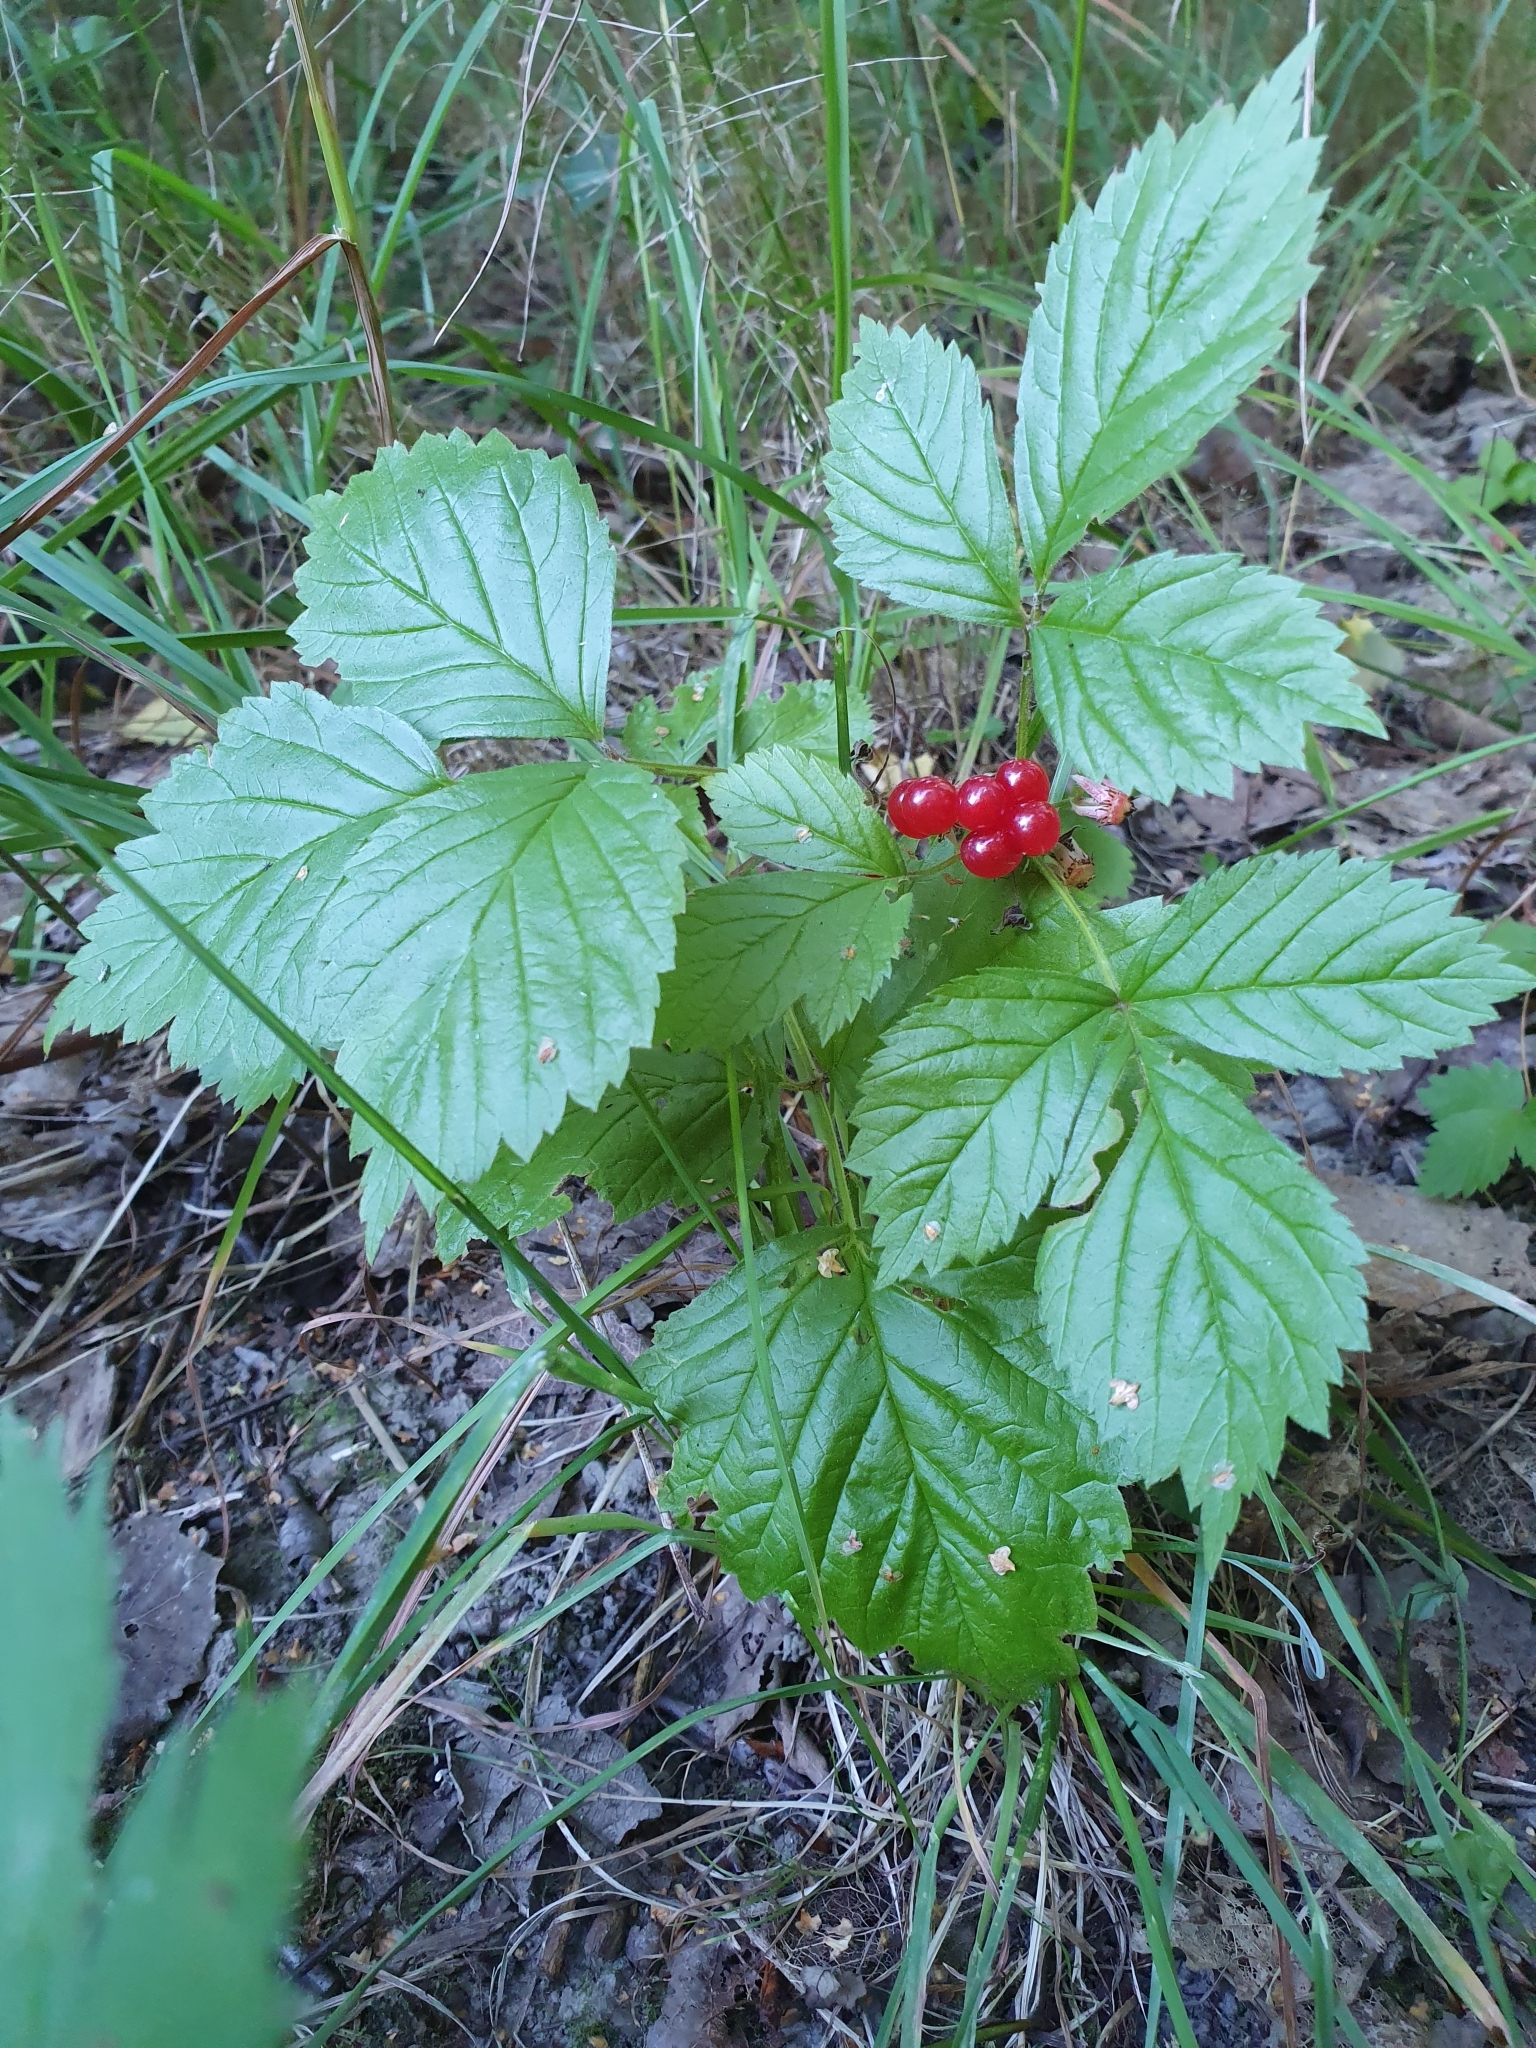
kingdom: Plantae
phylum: Tracheophyta
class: Magnoliopsida
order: Rosales
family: Rosaceae
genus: Rubus
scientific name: Rubus saxatilis
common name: Stone bramble
